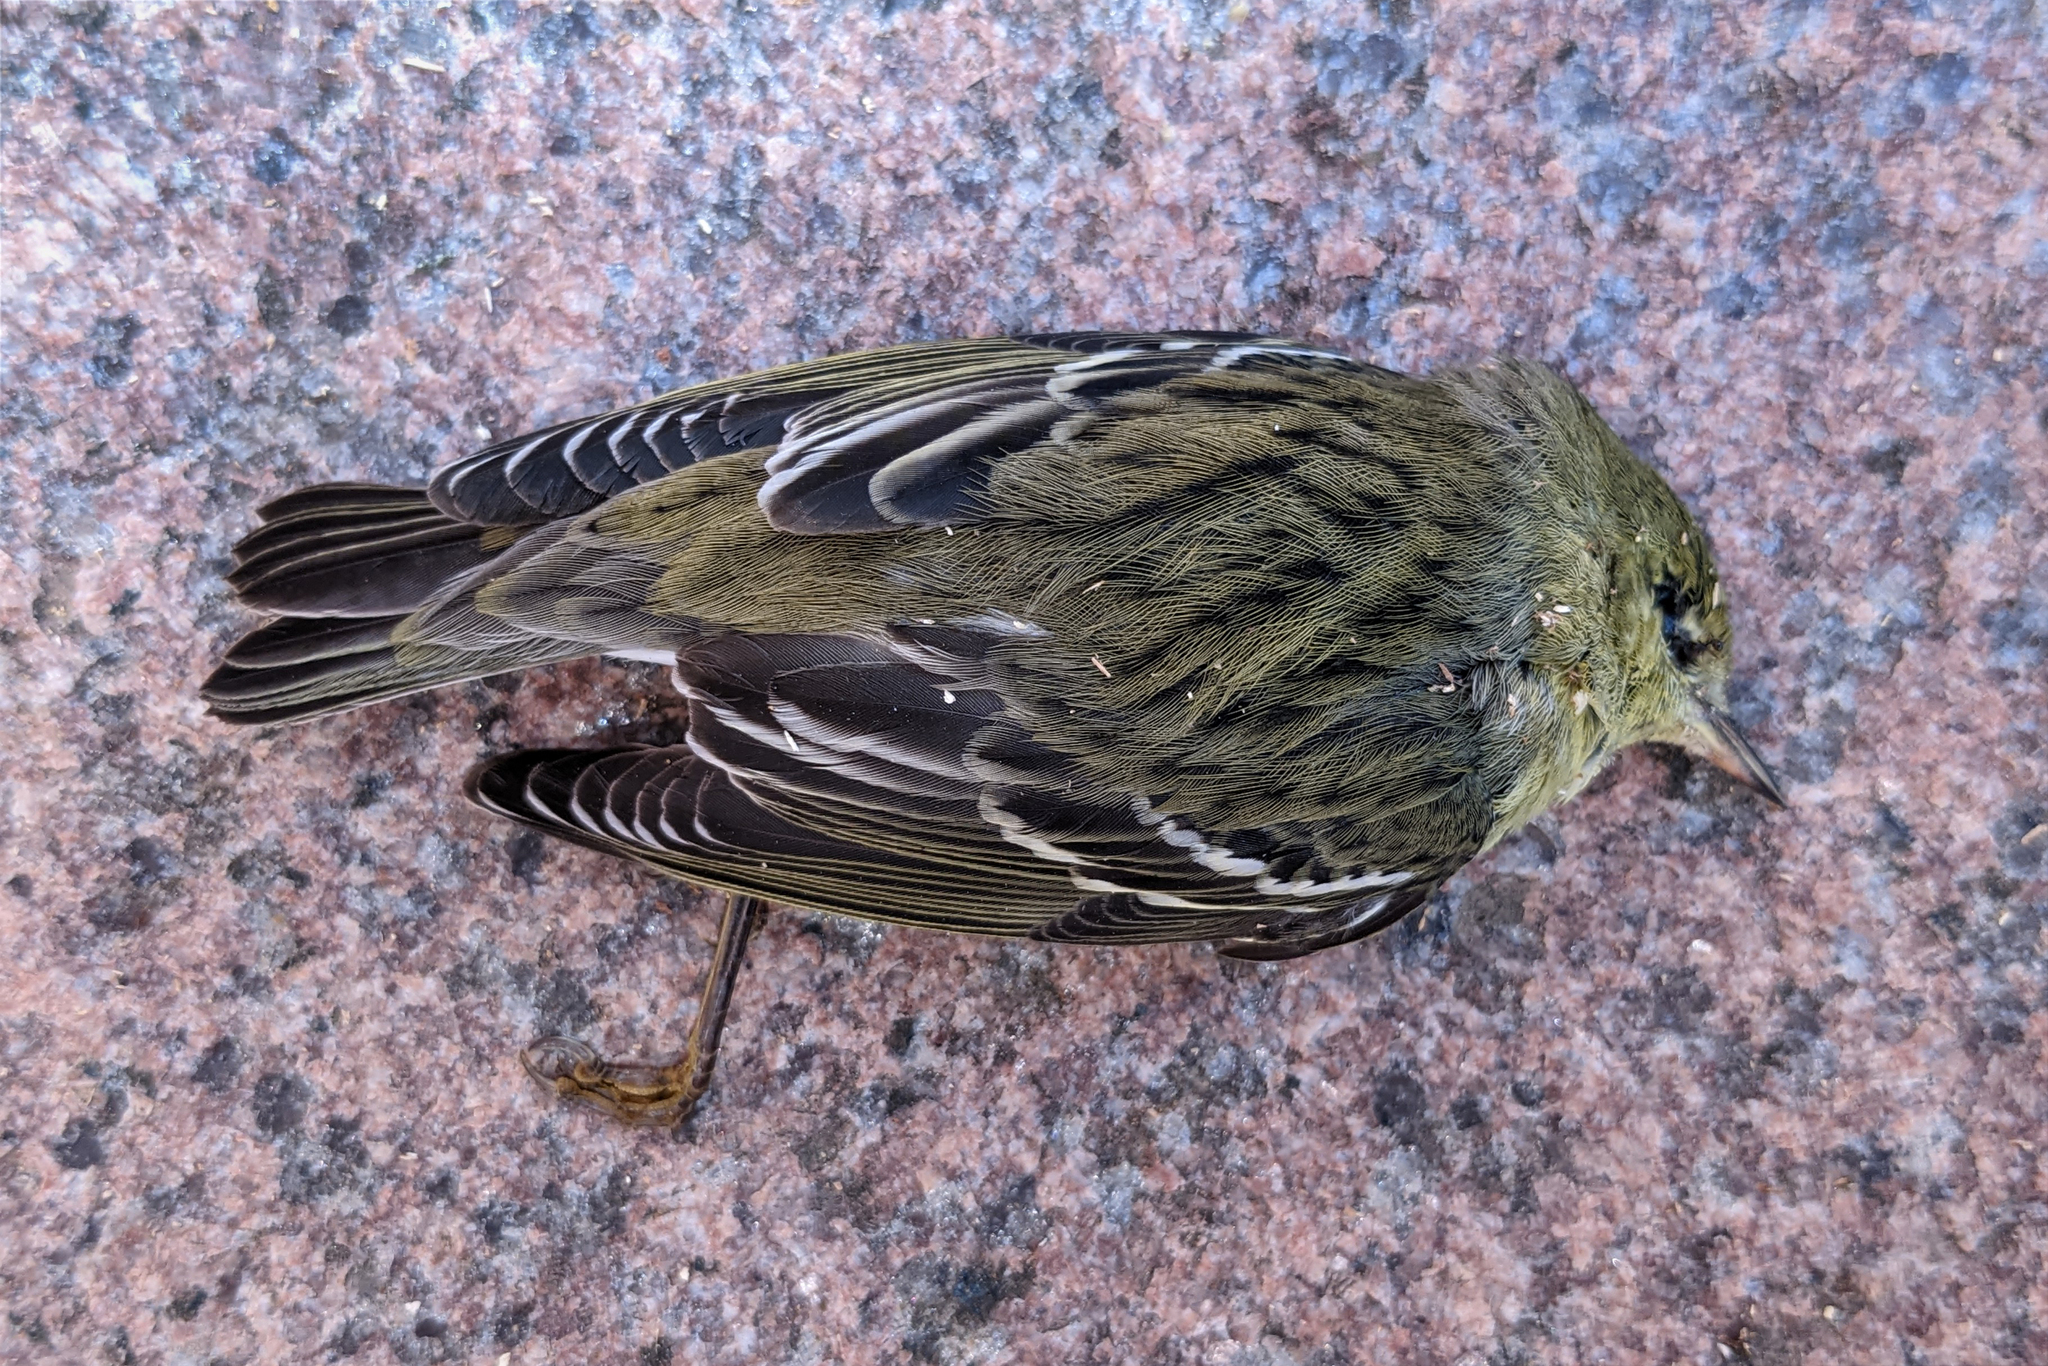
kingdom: Animalia
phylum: Chordata
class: Aves
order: Passeriformes
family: Parulidae
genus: Setophaga
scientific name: Setophaga striata
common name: Blackpoll warbler
